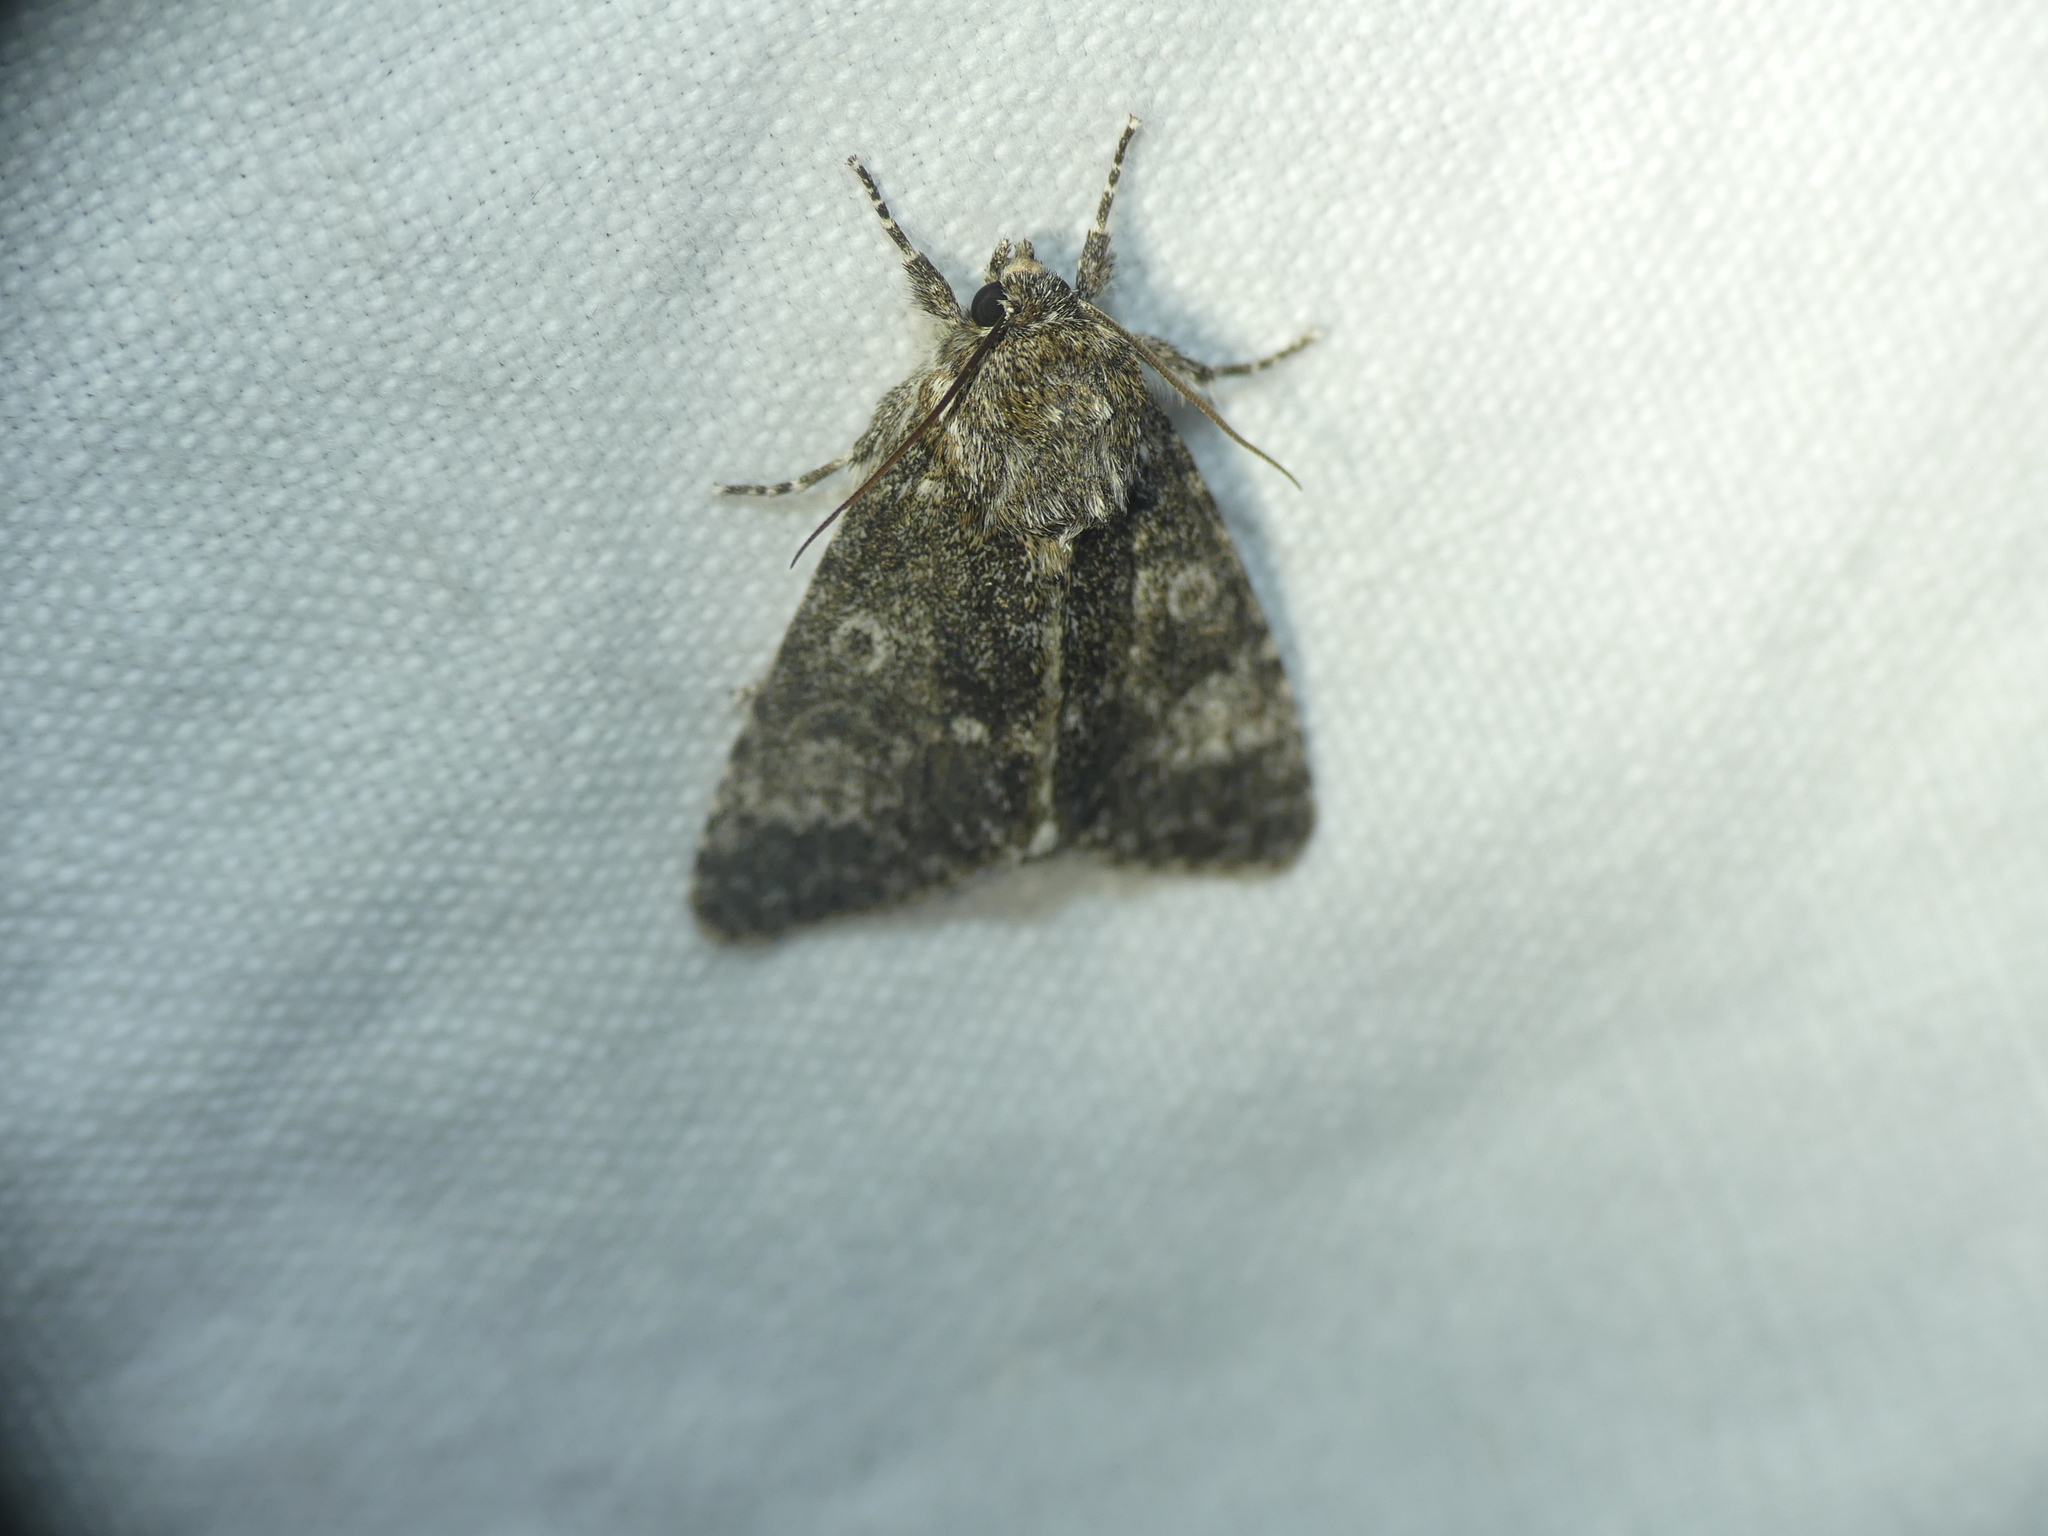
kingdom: Animalia
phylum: Arthropoda
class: Insecta
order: Lepidoptera
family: Noctuidae
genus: Acronicta
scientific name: Acronicta megacephala
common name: Poplar grey
